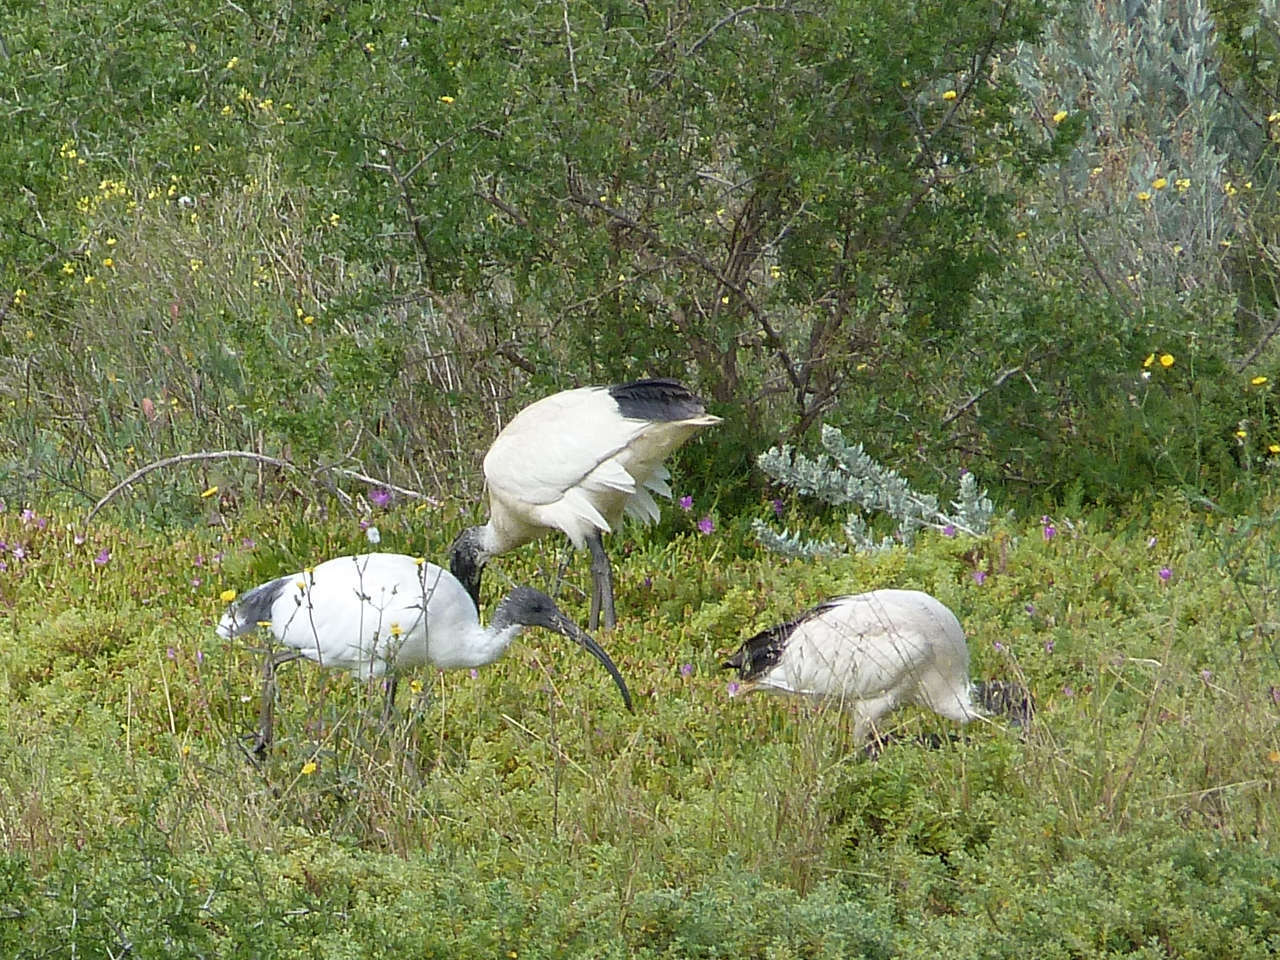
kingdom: Animalia
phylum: Chordata
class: Aves
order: Pelecaniformes
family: Threskiornithidae
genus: Threskiornis
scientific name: Threskiornis molucca
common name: Australian white ibis
